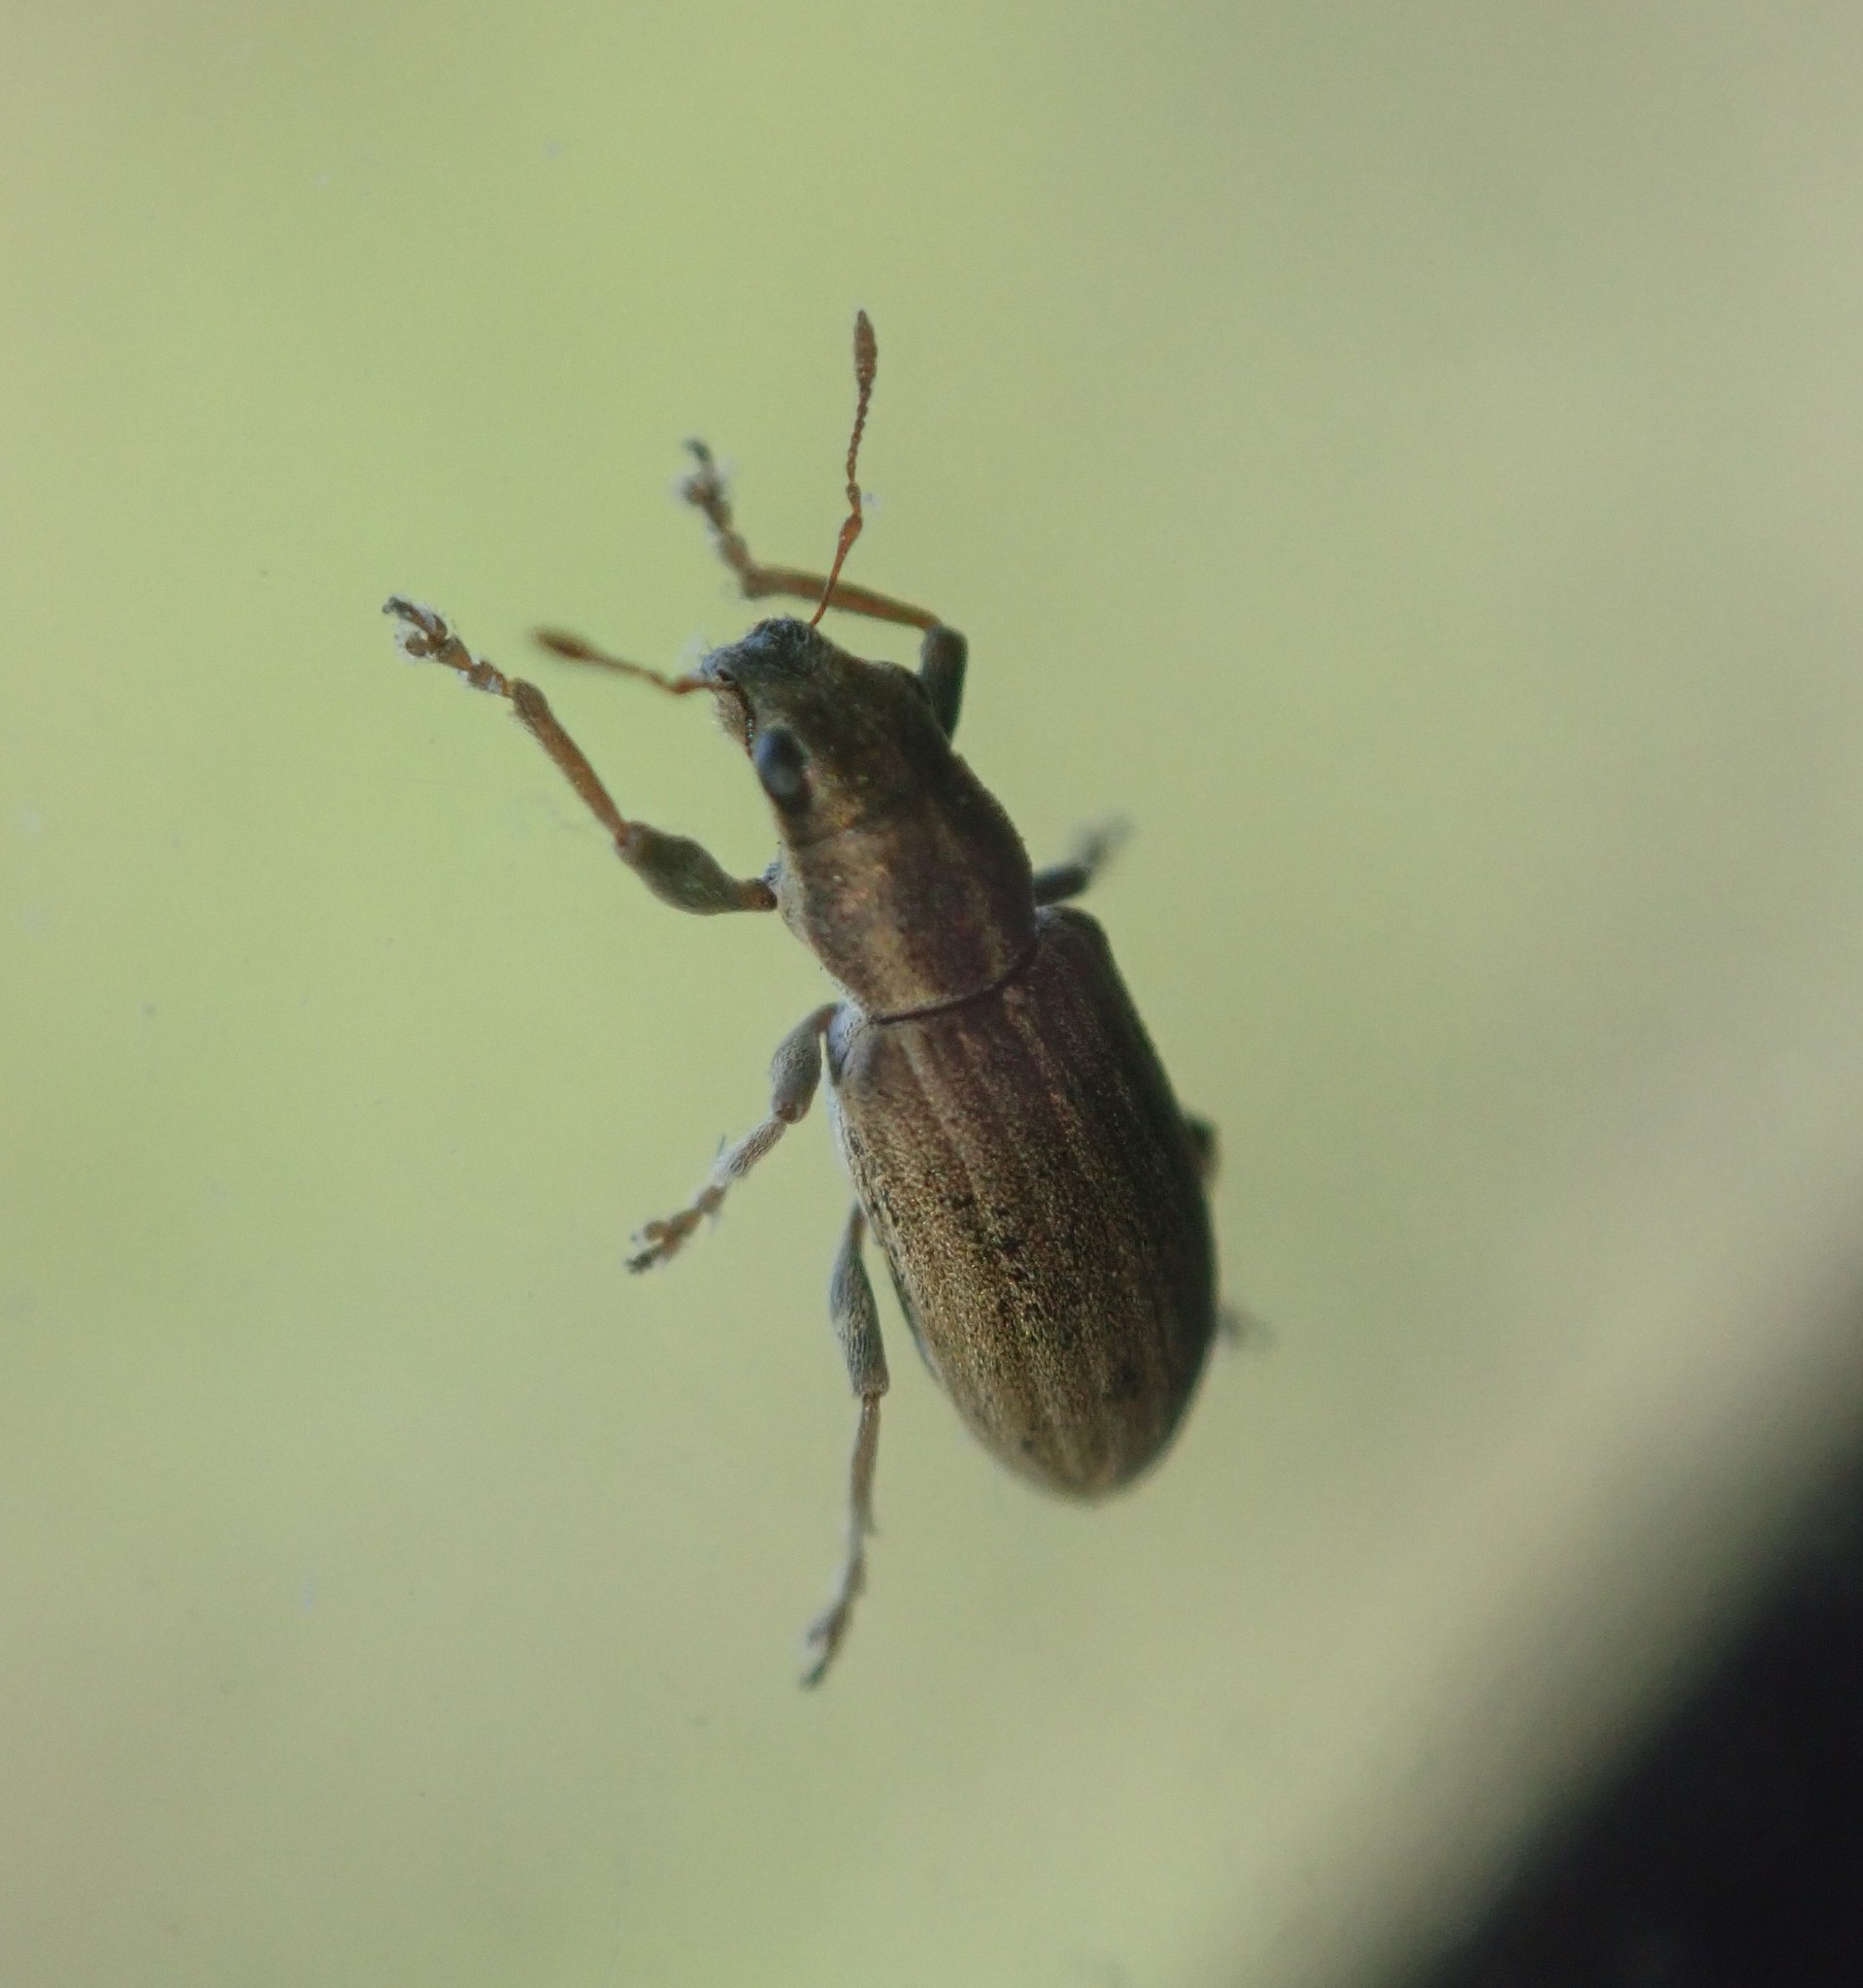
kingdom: Animalia
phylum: Arthropoda
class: Insecta
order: Coleoptera
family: Curculionidae
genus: Sitona
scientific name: Sitona lineatus
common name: Weevil
